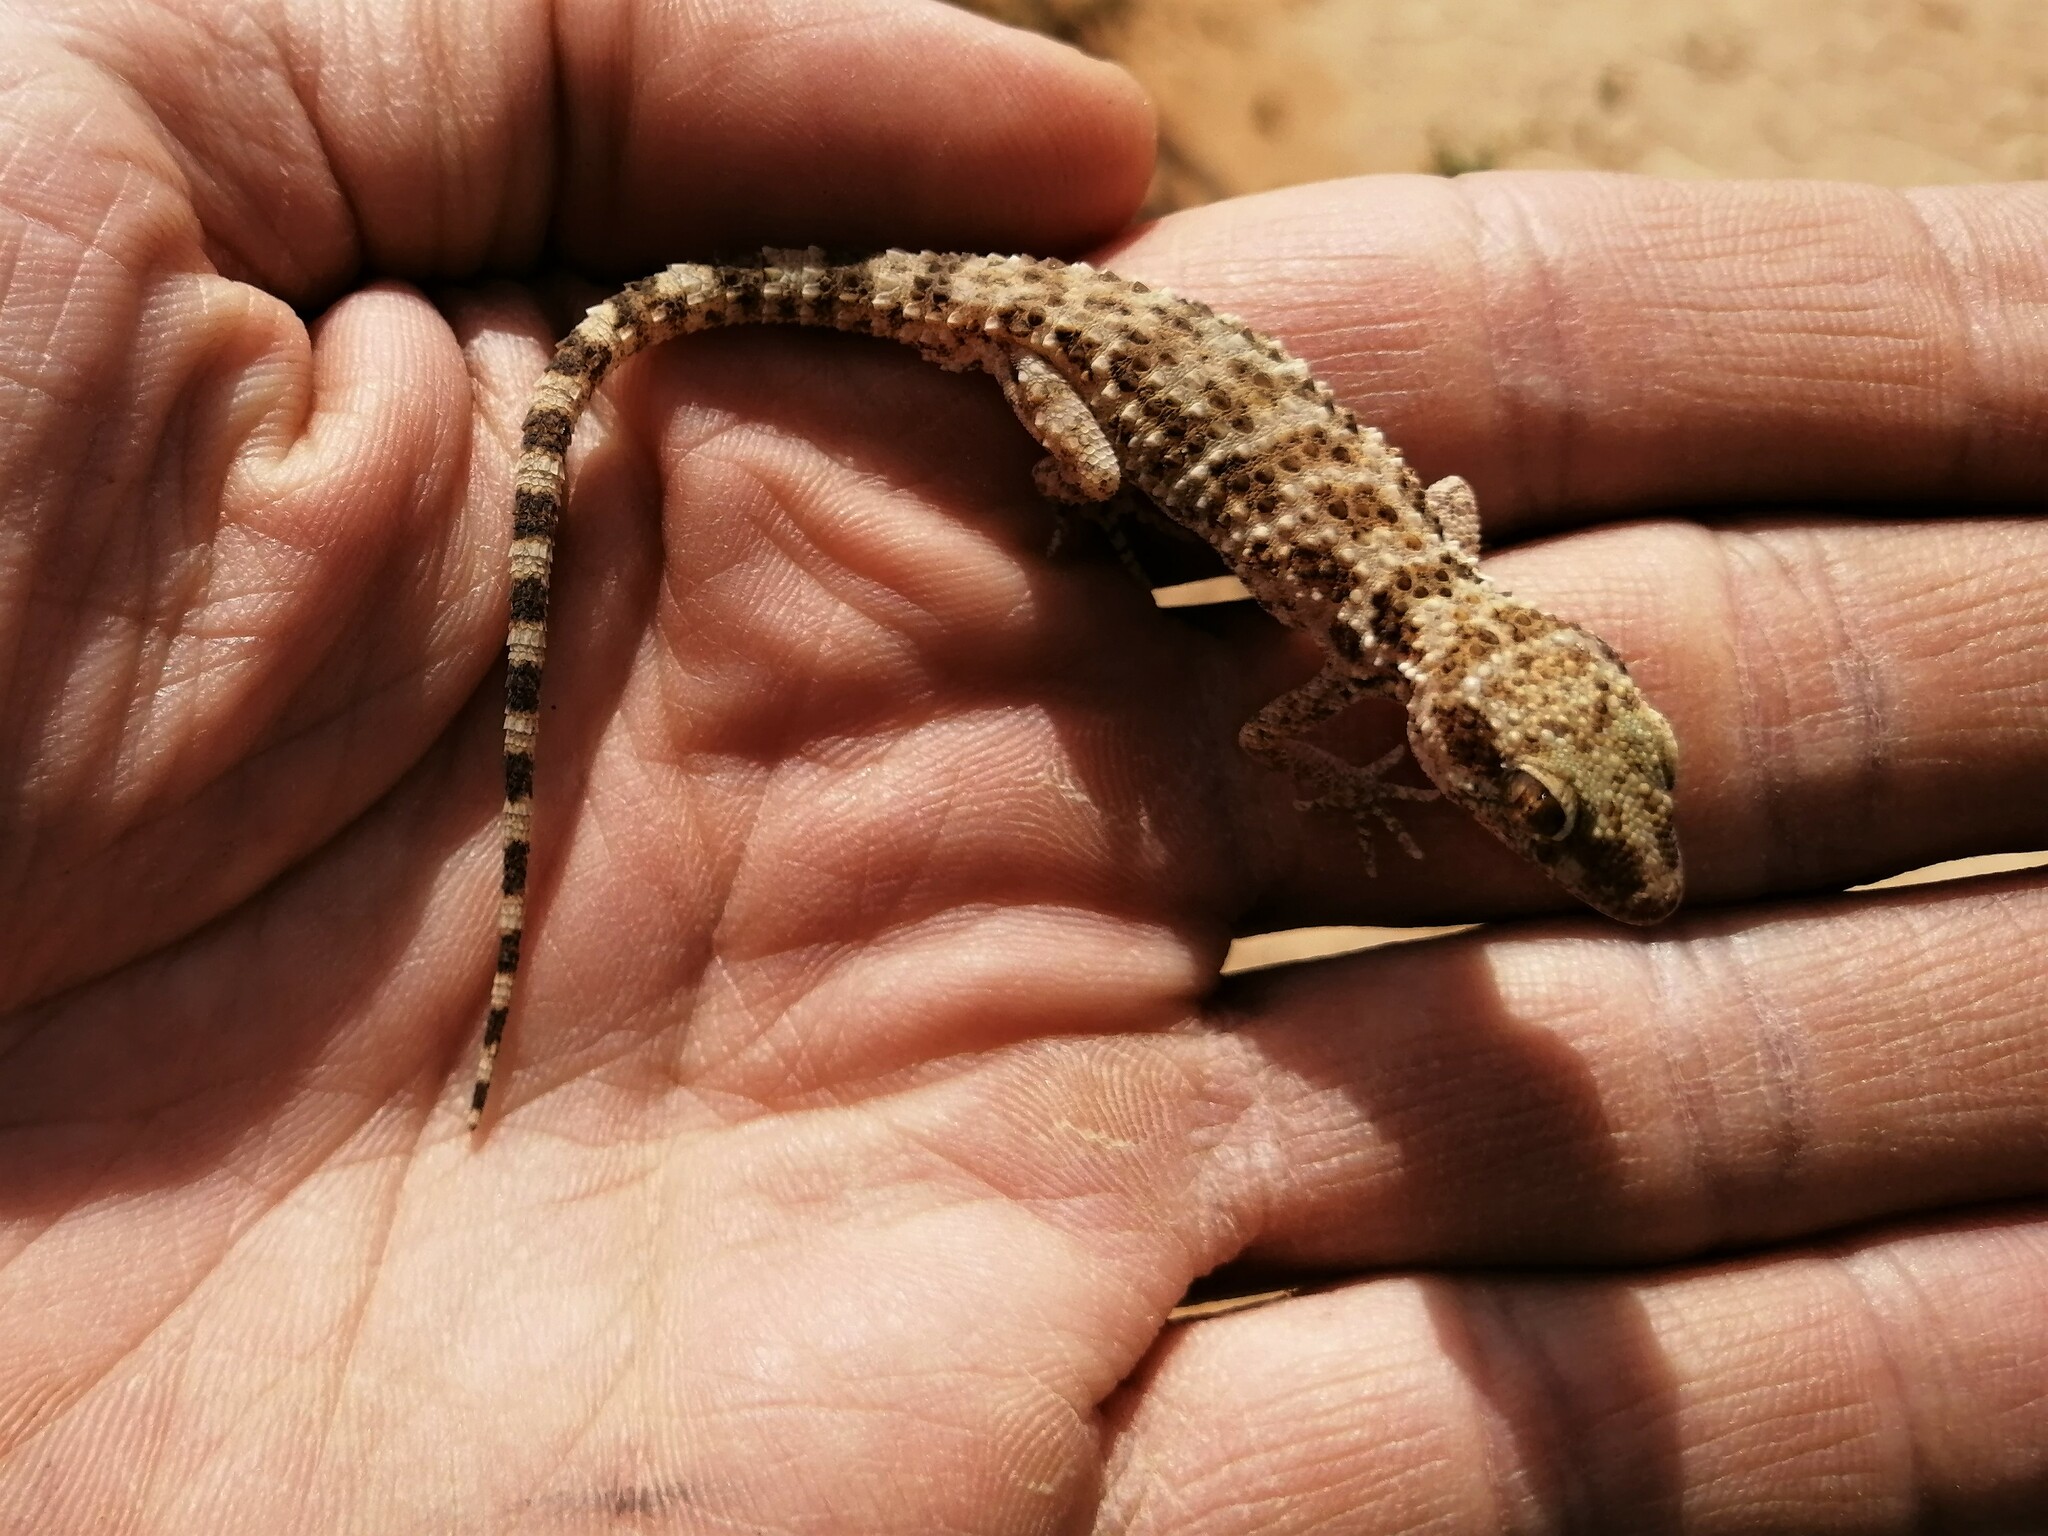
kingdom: Animalia
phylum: Chordata
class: Squamata
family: Gekkonidae
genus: Bunopus
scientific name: Bunopus tuberculatus
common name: Southern tuberculated gecko
